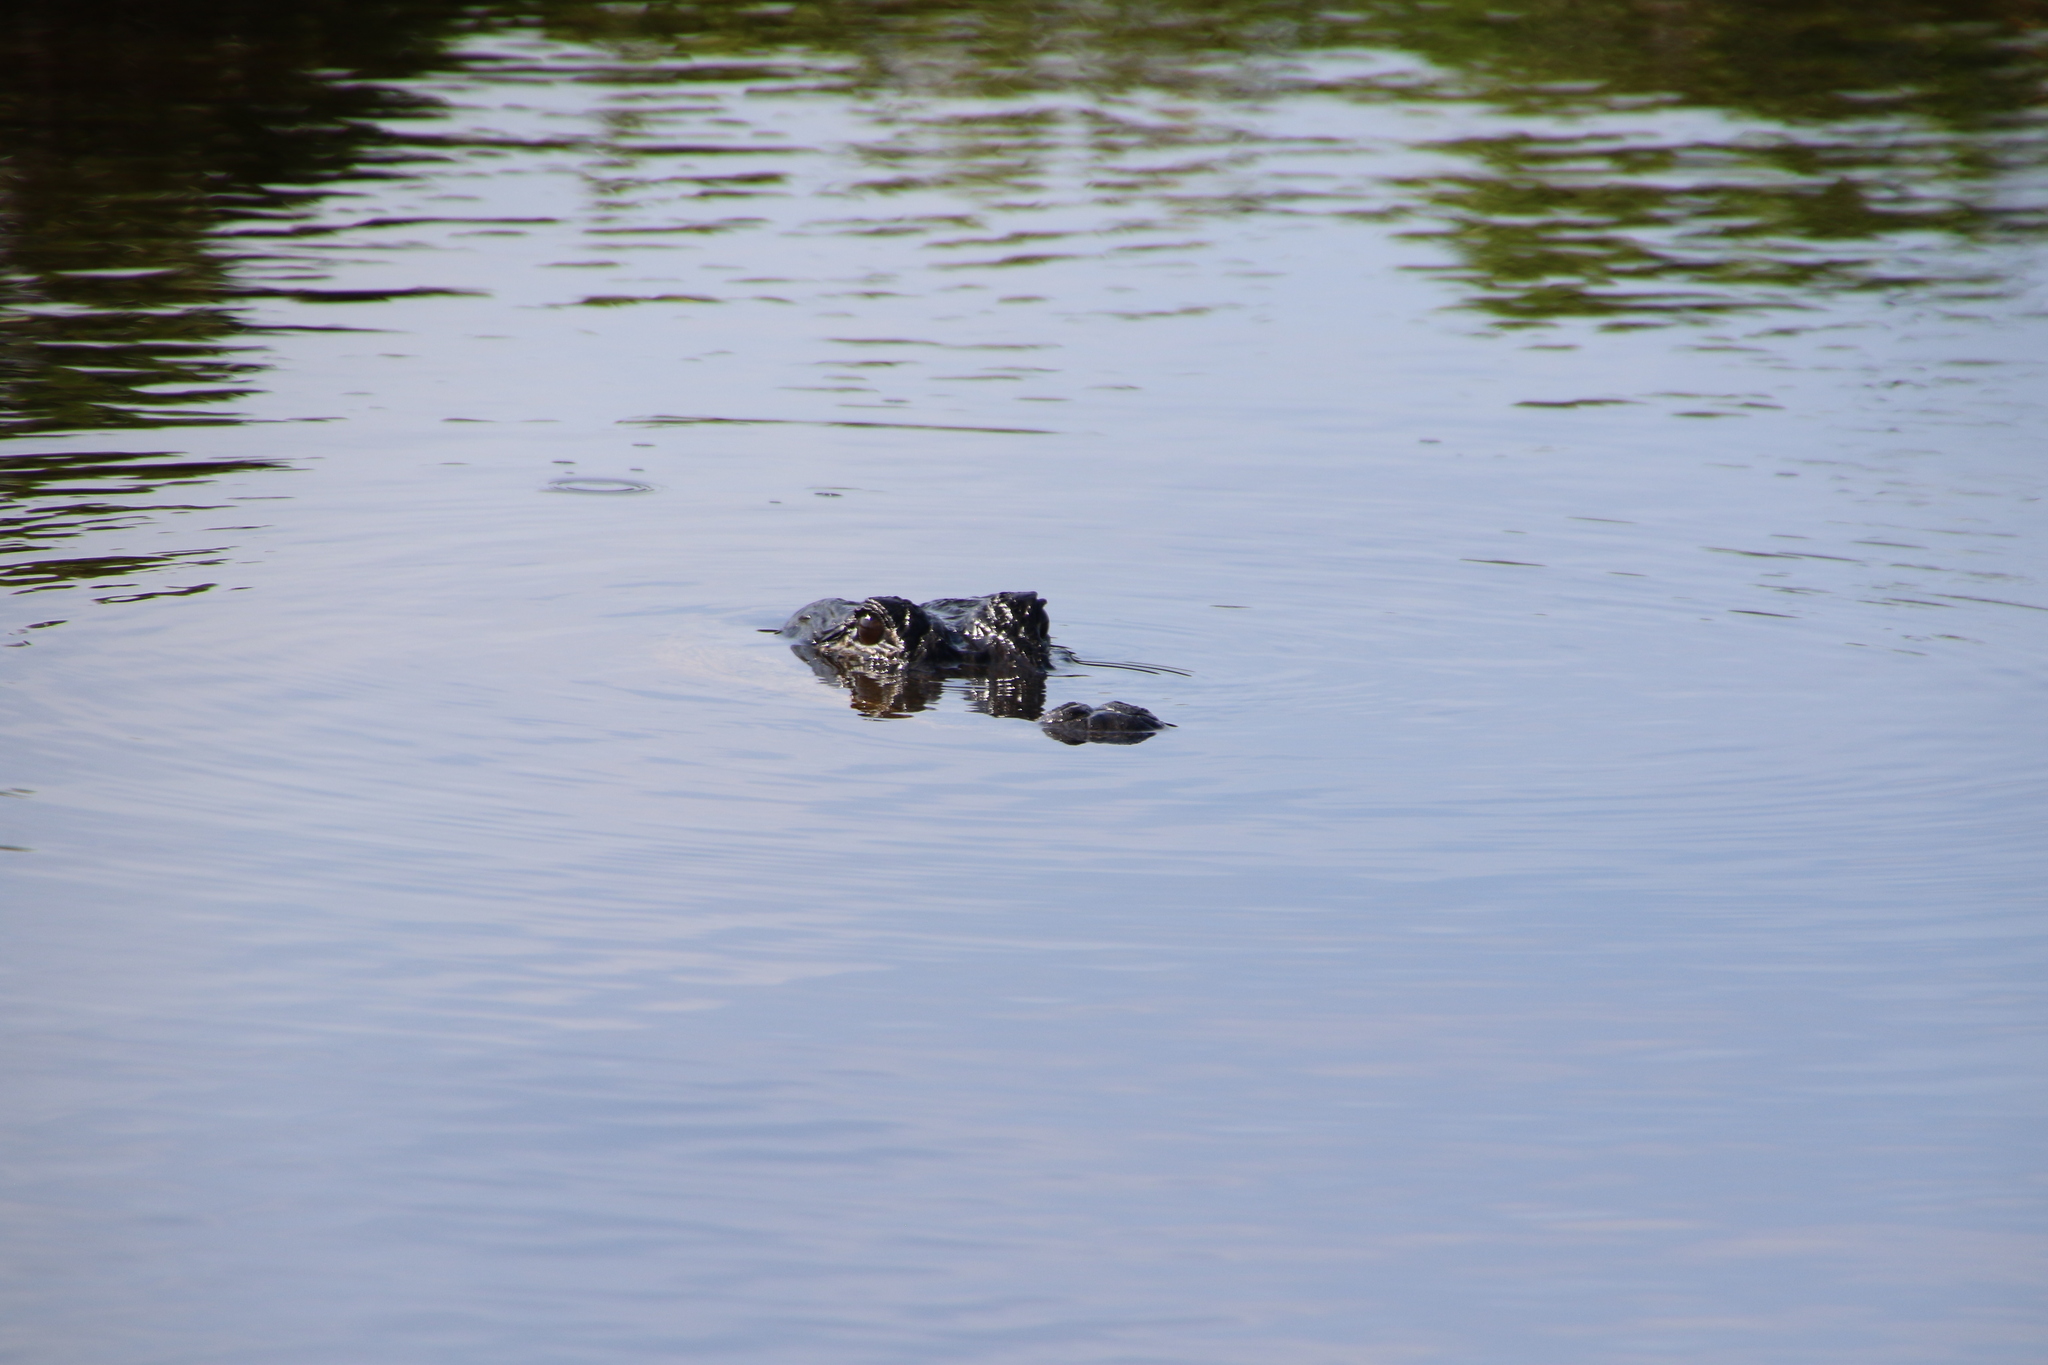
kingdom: Animalia
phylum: Chordata
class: Crocodylia
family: Alligatoridae
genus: Alligator
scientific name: Alligator mississippiensis
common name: American alligator
